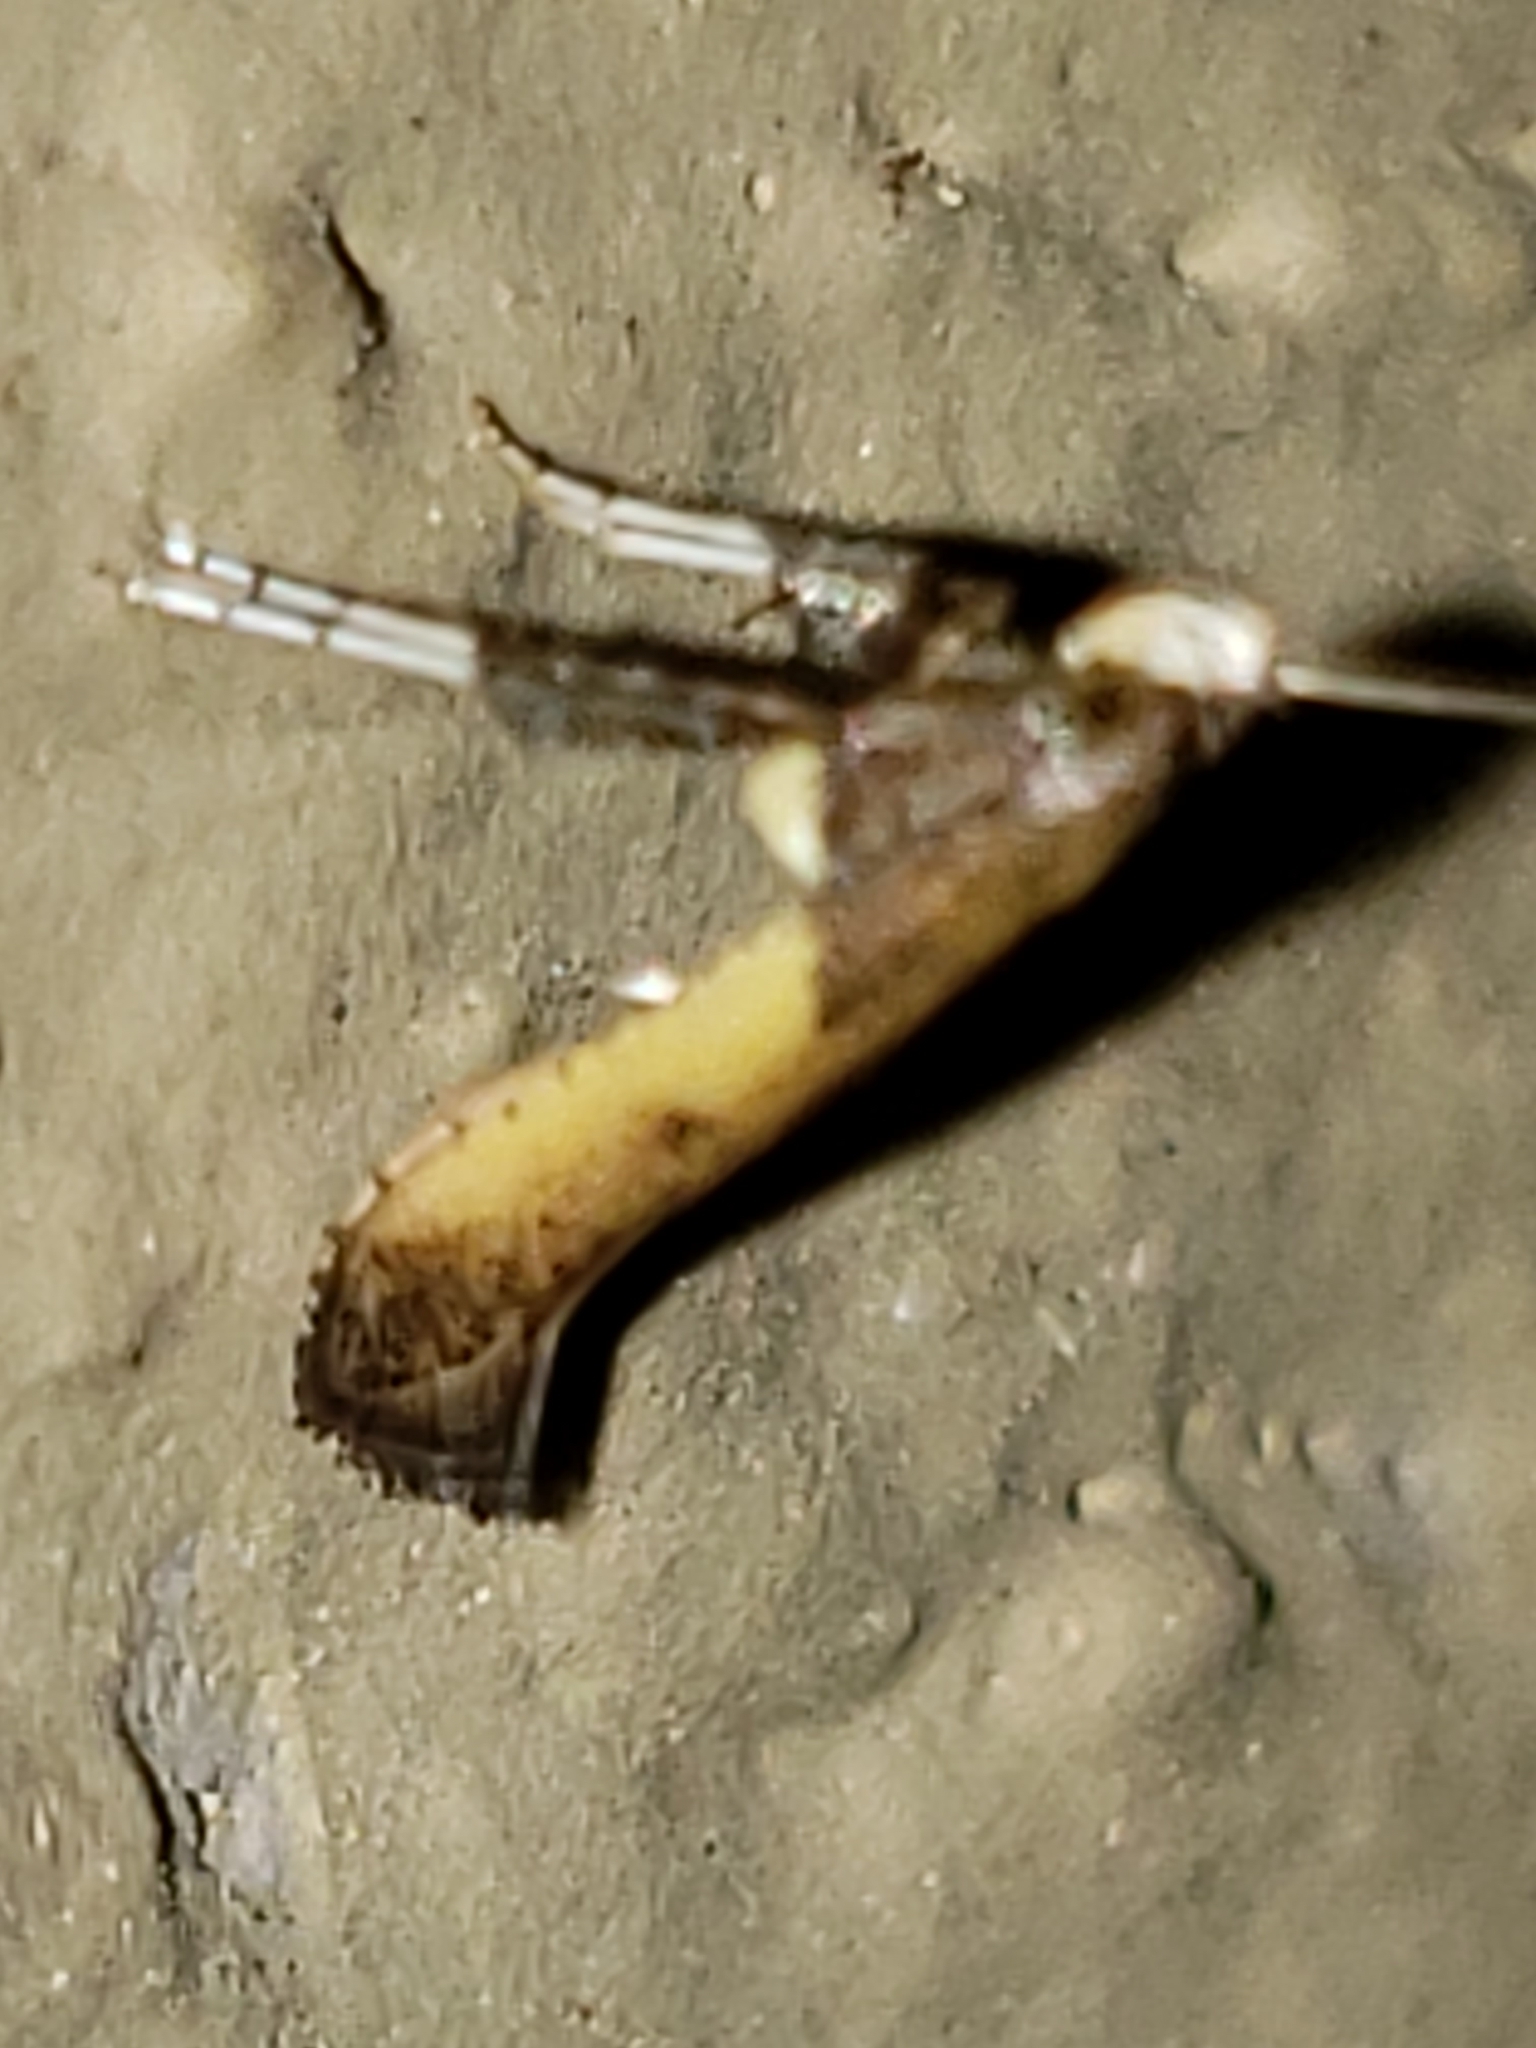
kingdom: Animalia
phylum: Arthropoda
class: Insecta
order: Lepidoptera
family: Gracillariidae
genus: Caloptilia
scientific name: Caloptilia azaleella
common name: Azalea leafminer
